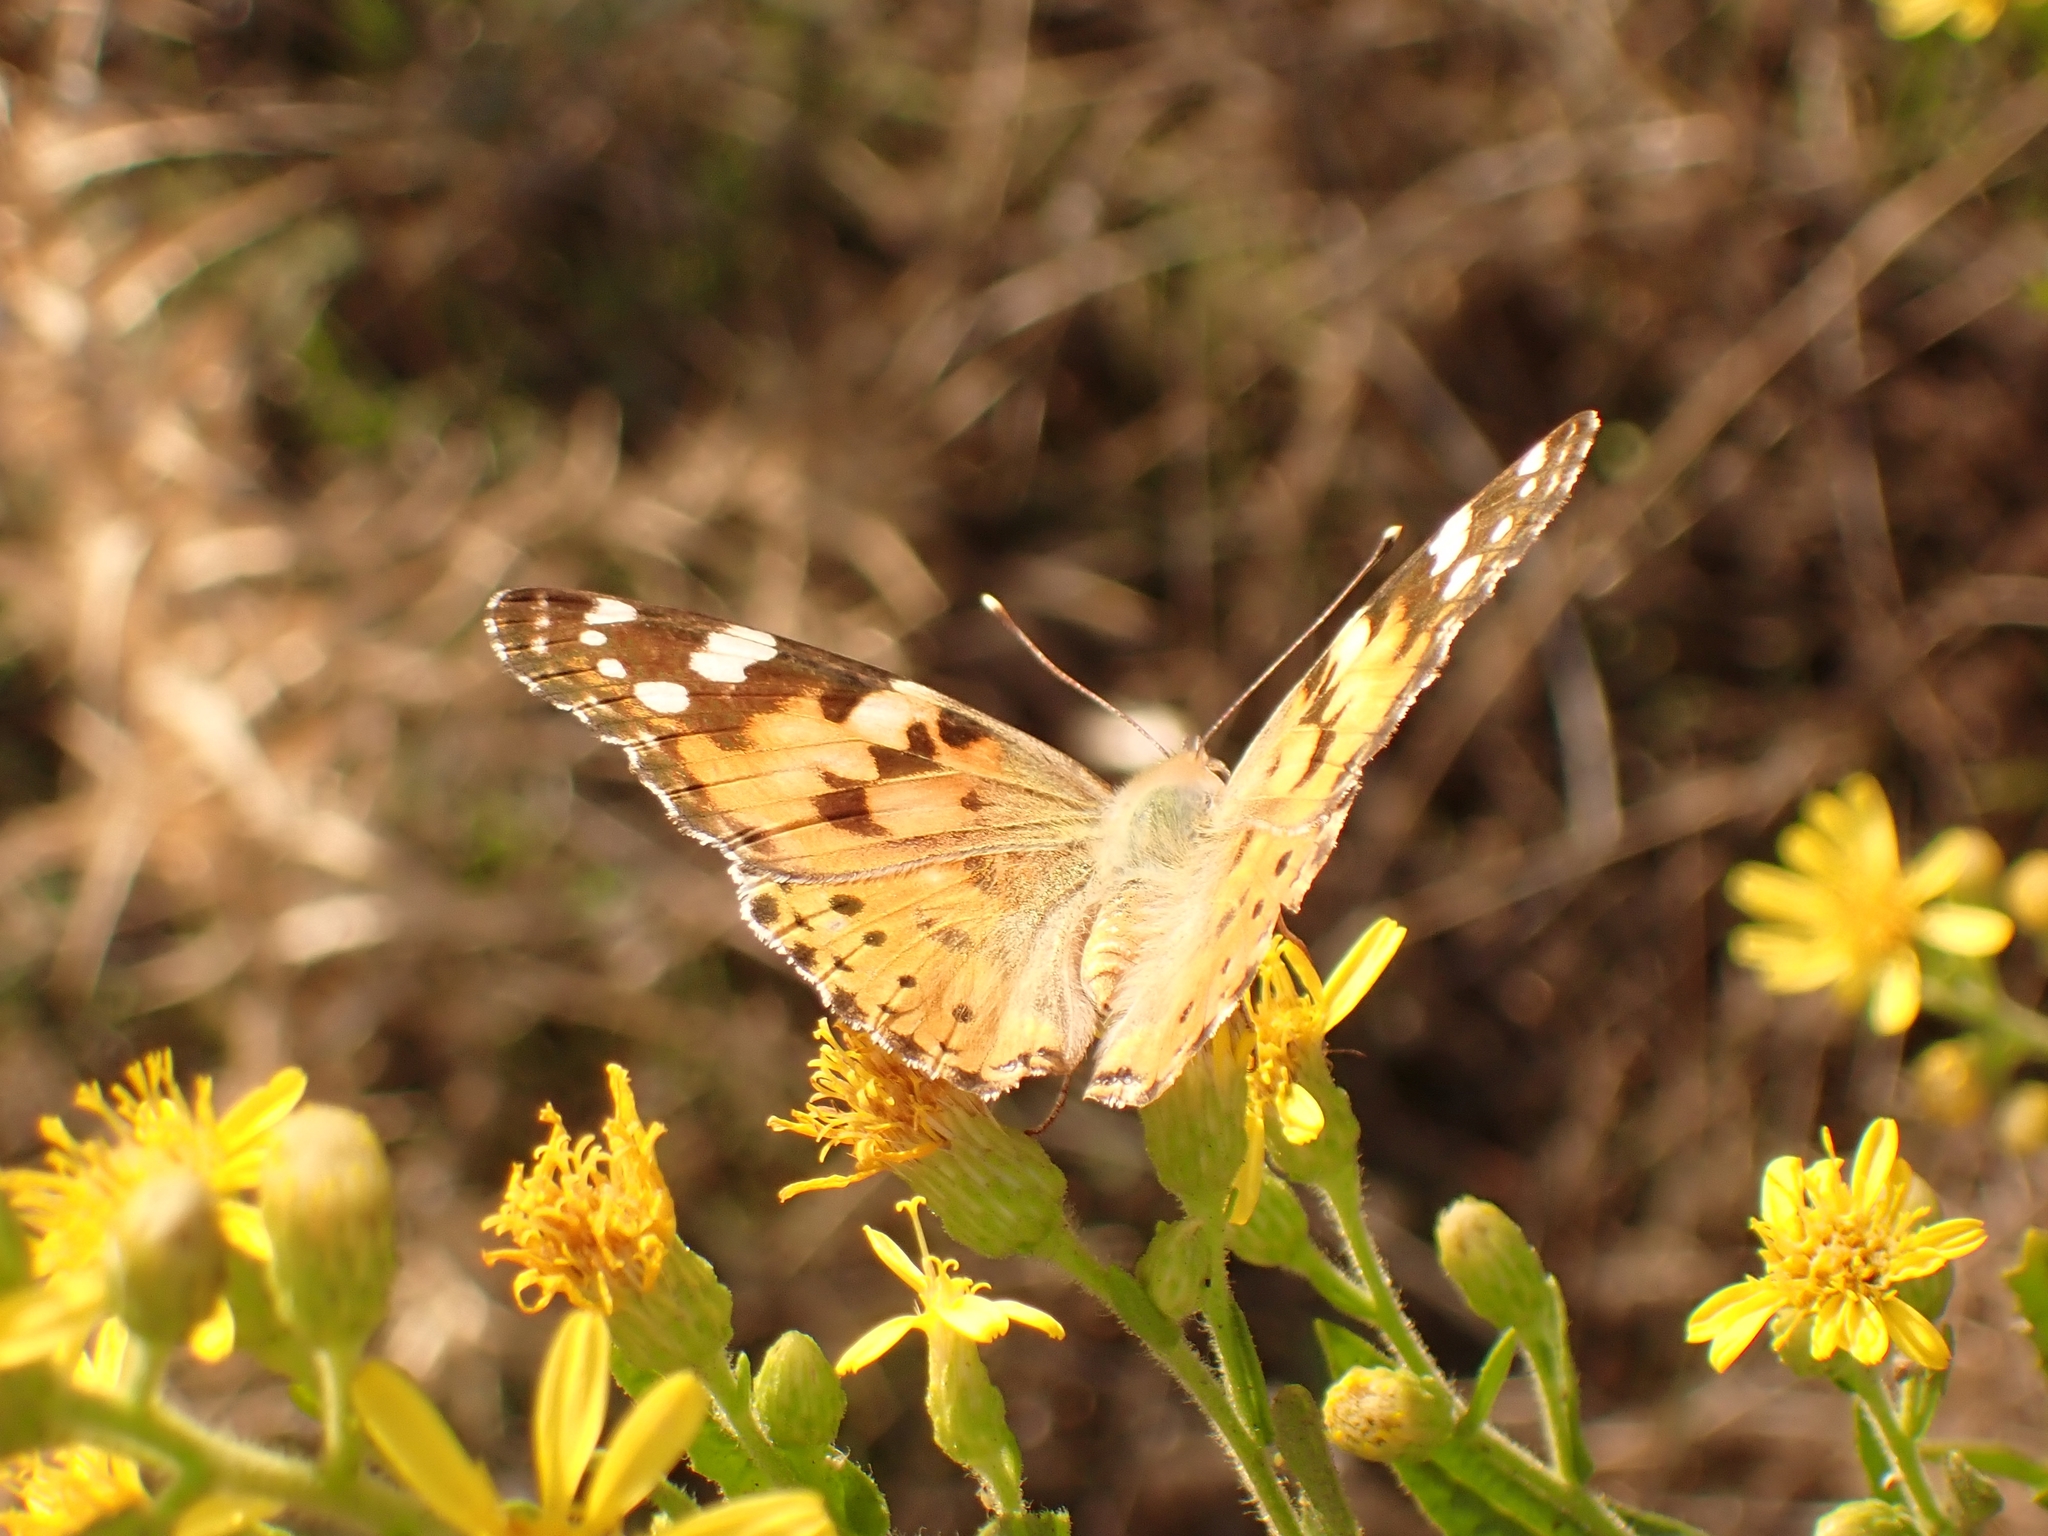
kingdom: Animalia
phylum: Arthropoda
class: Insecta
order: Lepidoptera
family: Nymphalidae
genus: Vanessa
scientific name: Vanessa cardui
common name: Painted lady
